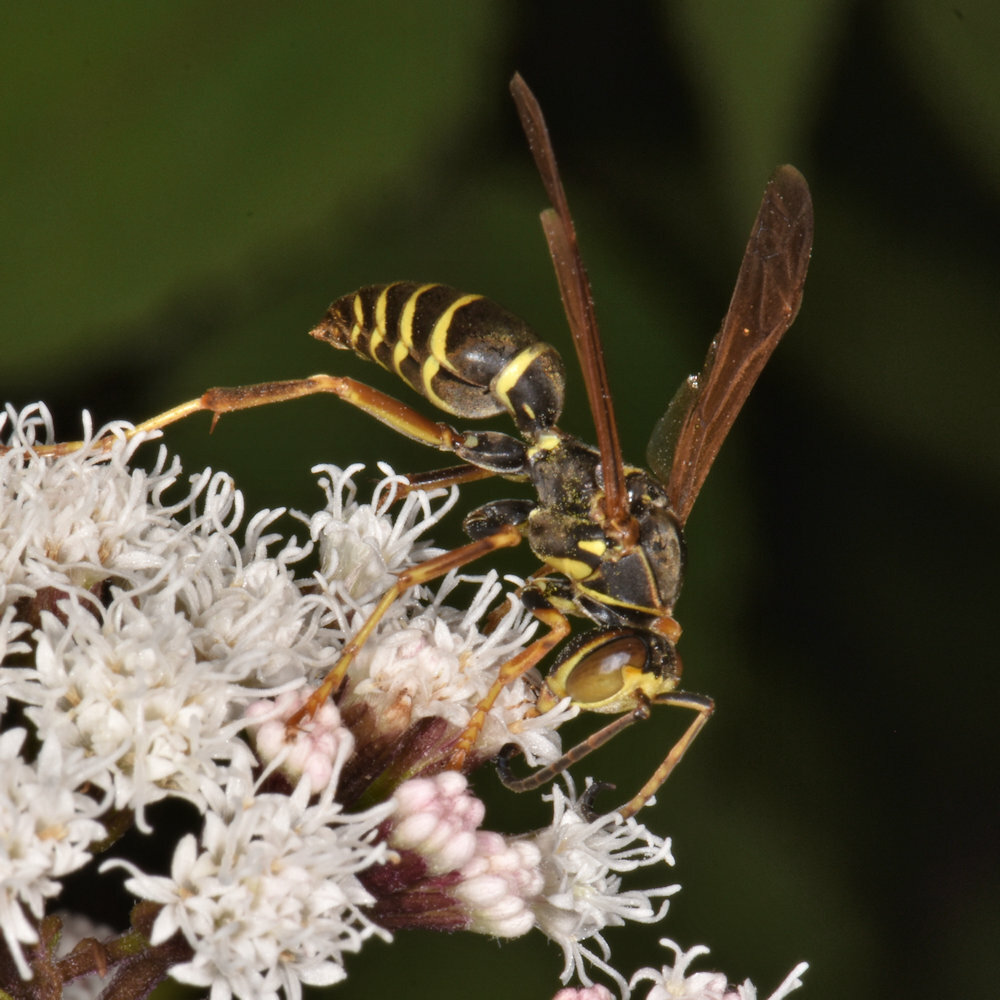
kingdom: Animalia
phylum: Arthropoda
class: Insecta
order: Hymenoptera
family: Eumenidae
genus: Polistes
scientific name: Polistes fuscatus
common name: Dark paper wasp
